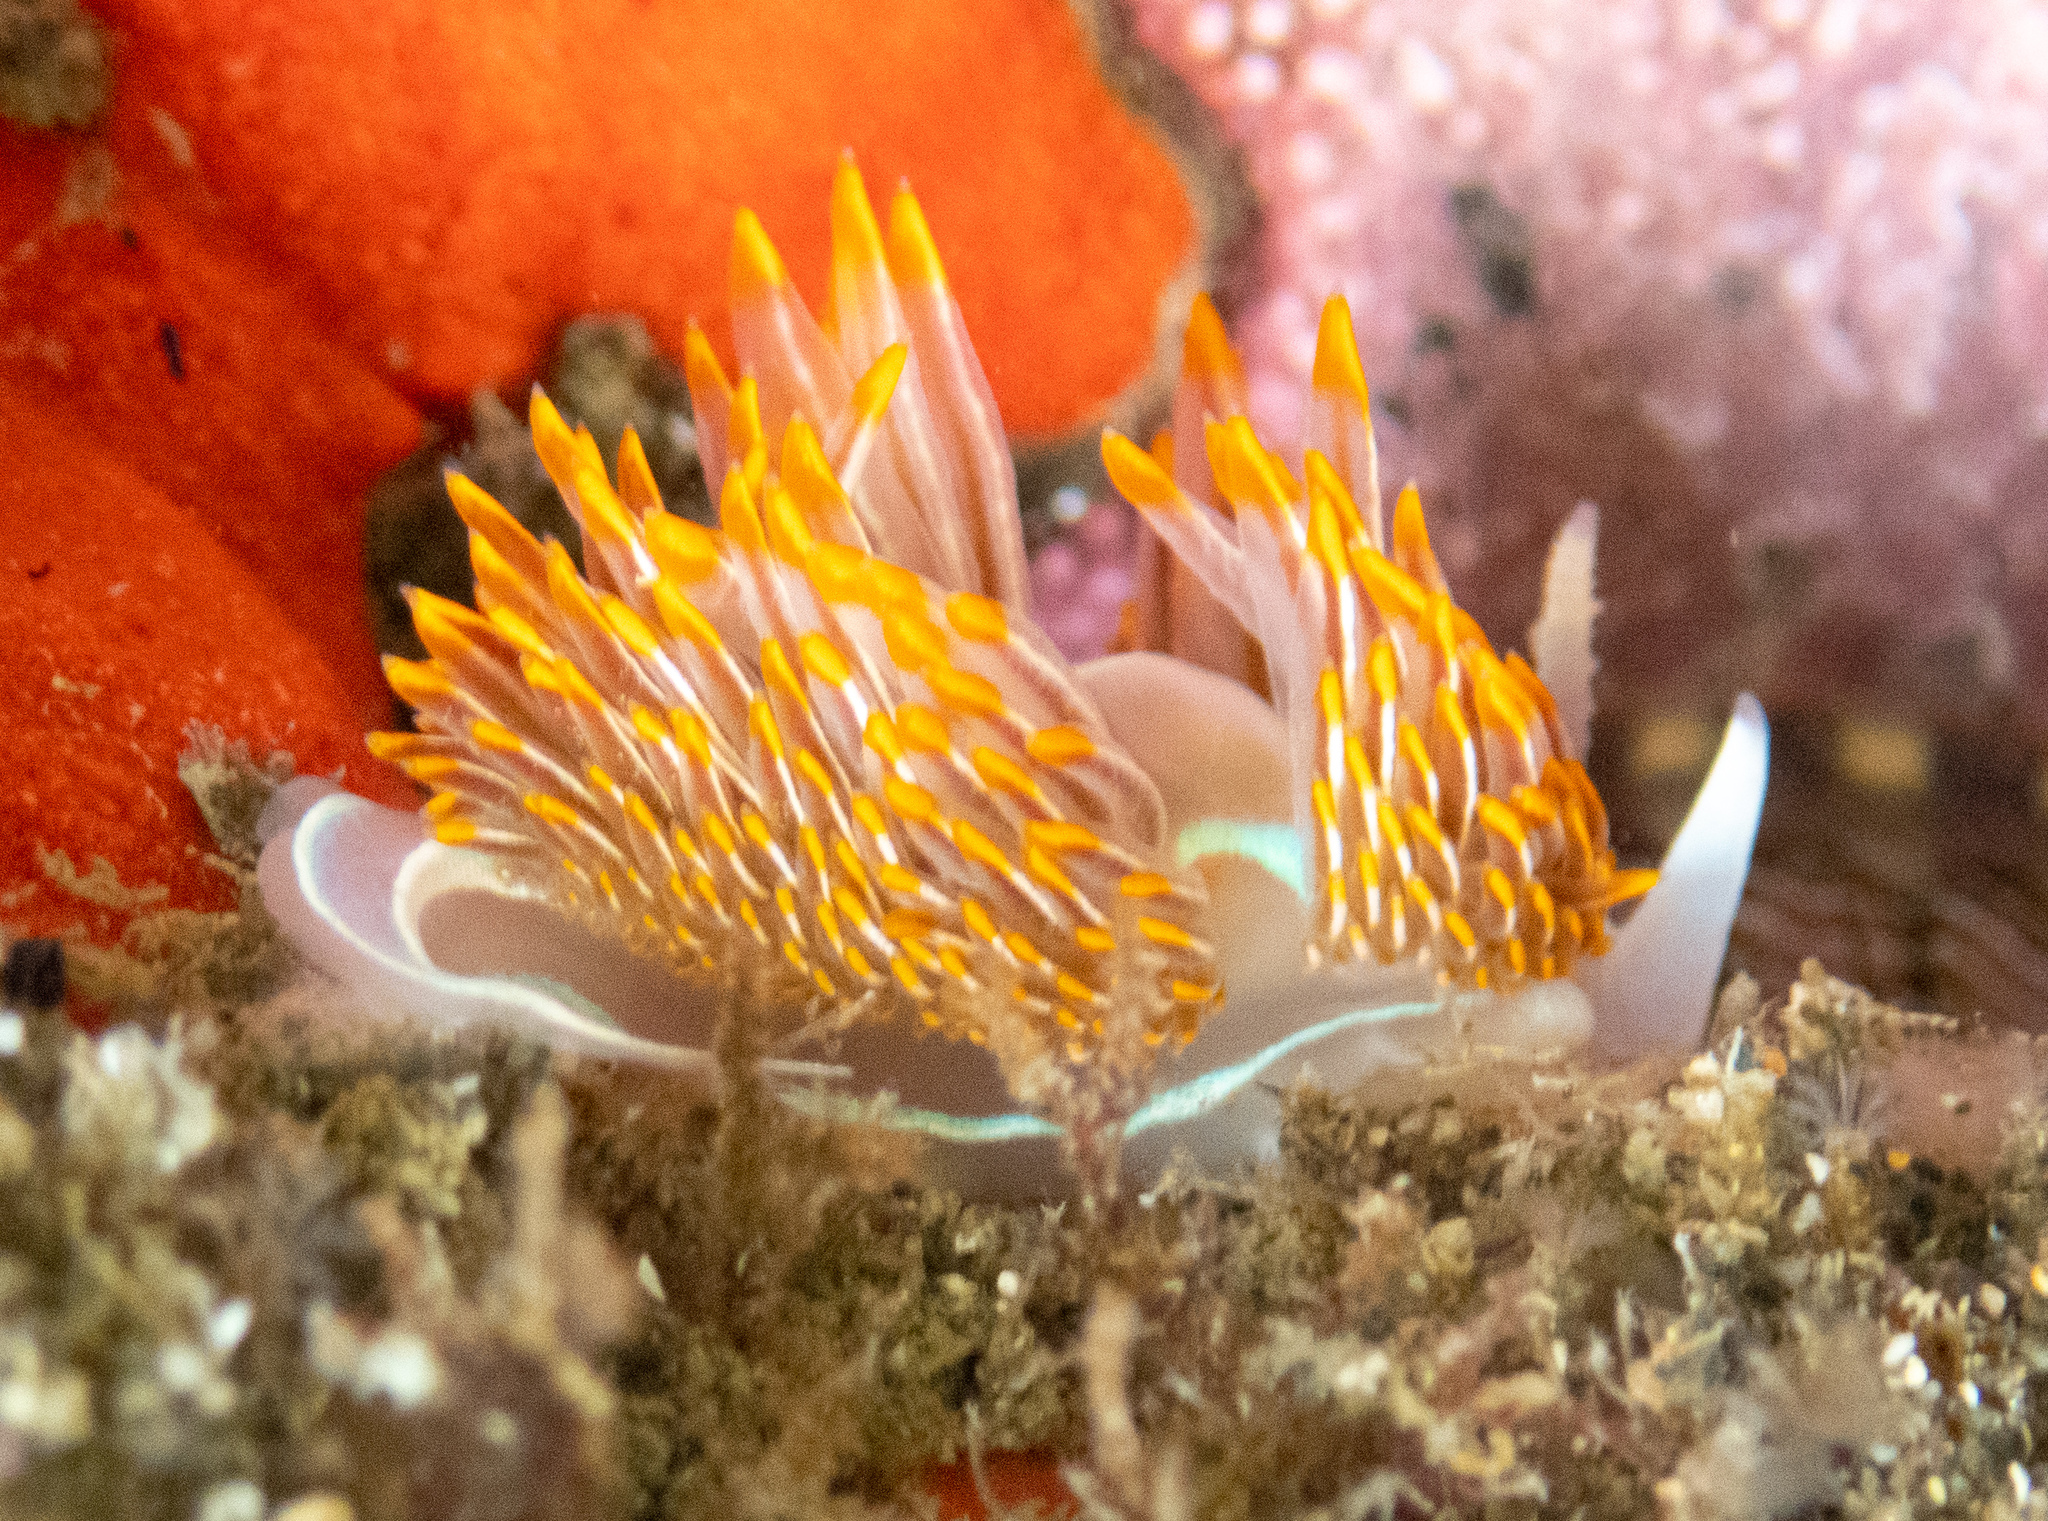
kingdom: Animalia
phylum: Mollusca
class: Gastropoda
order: Nudibranchia
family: Myrrhinidae
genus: Hermissenda
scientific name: Hermissenda crassicornis
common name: Hermissenda
